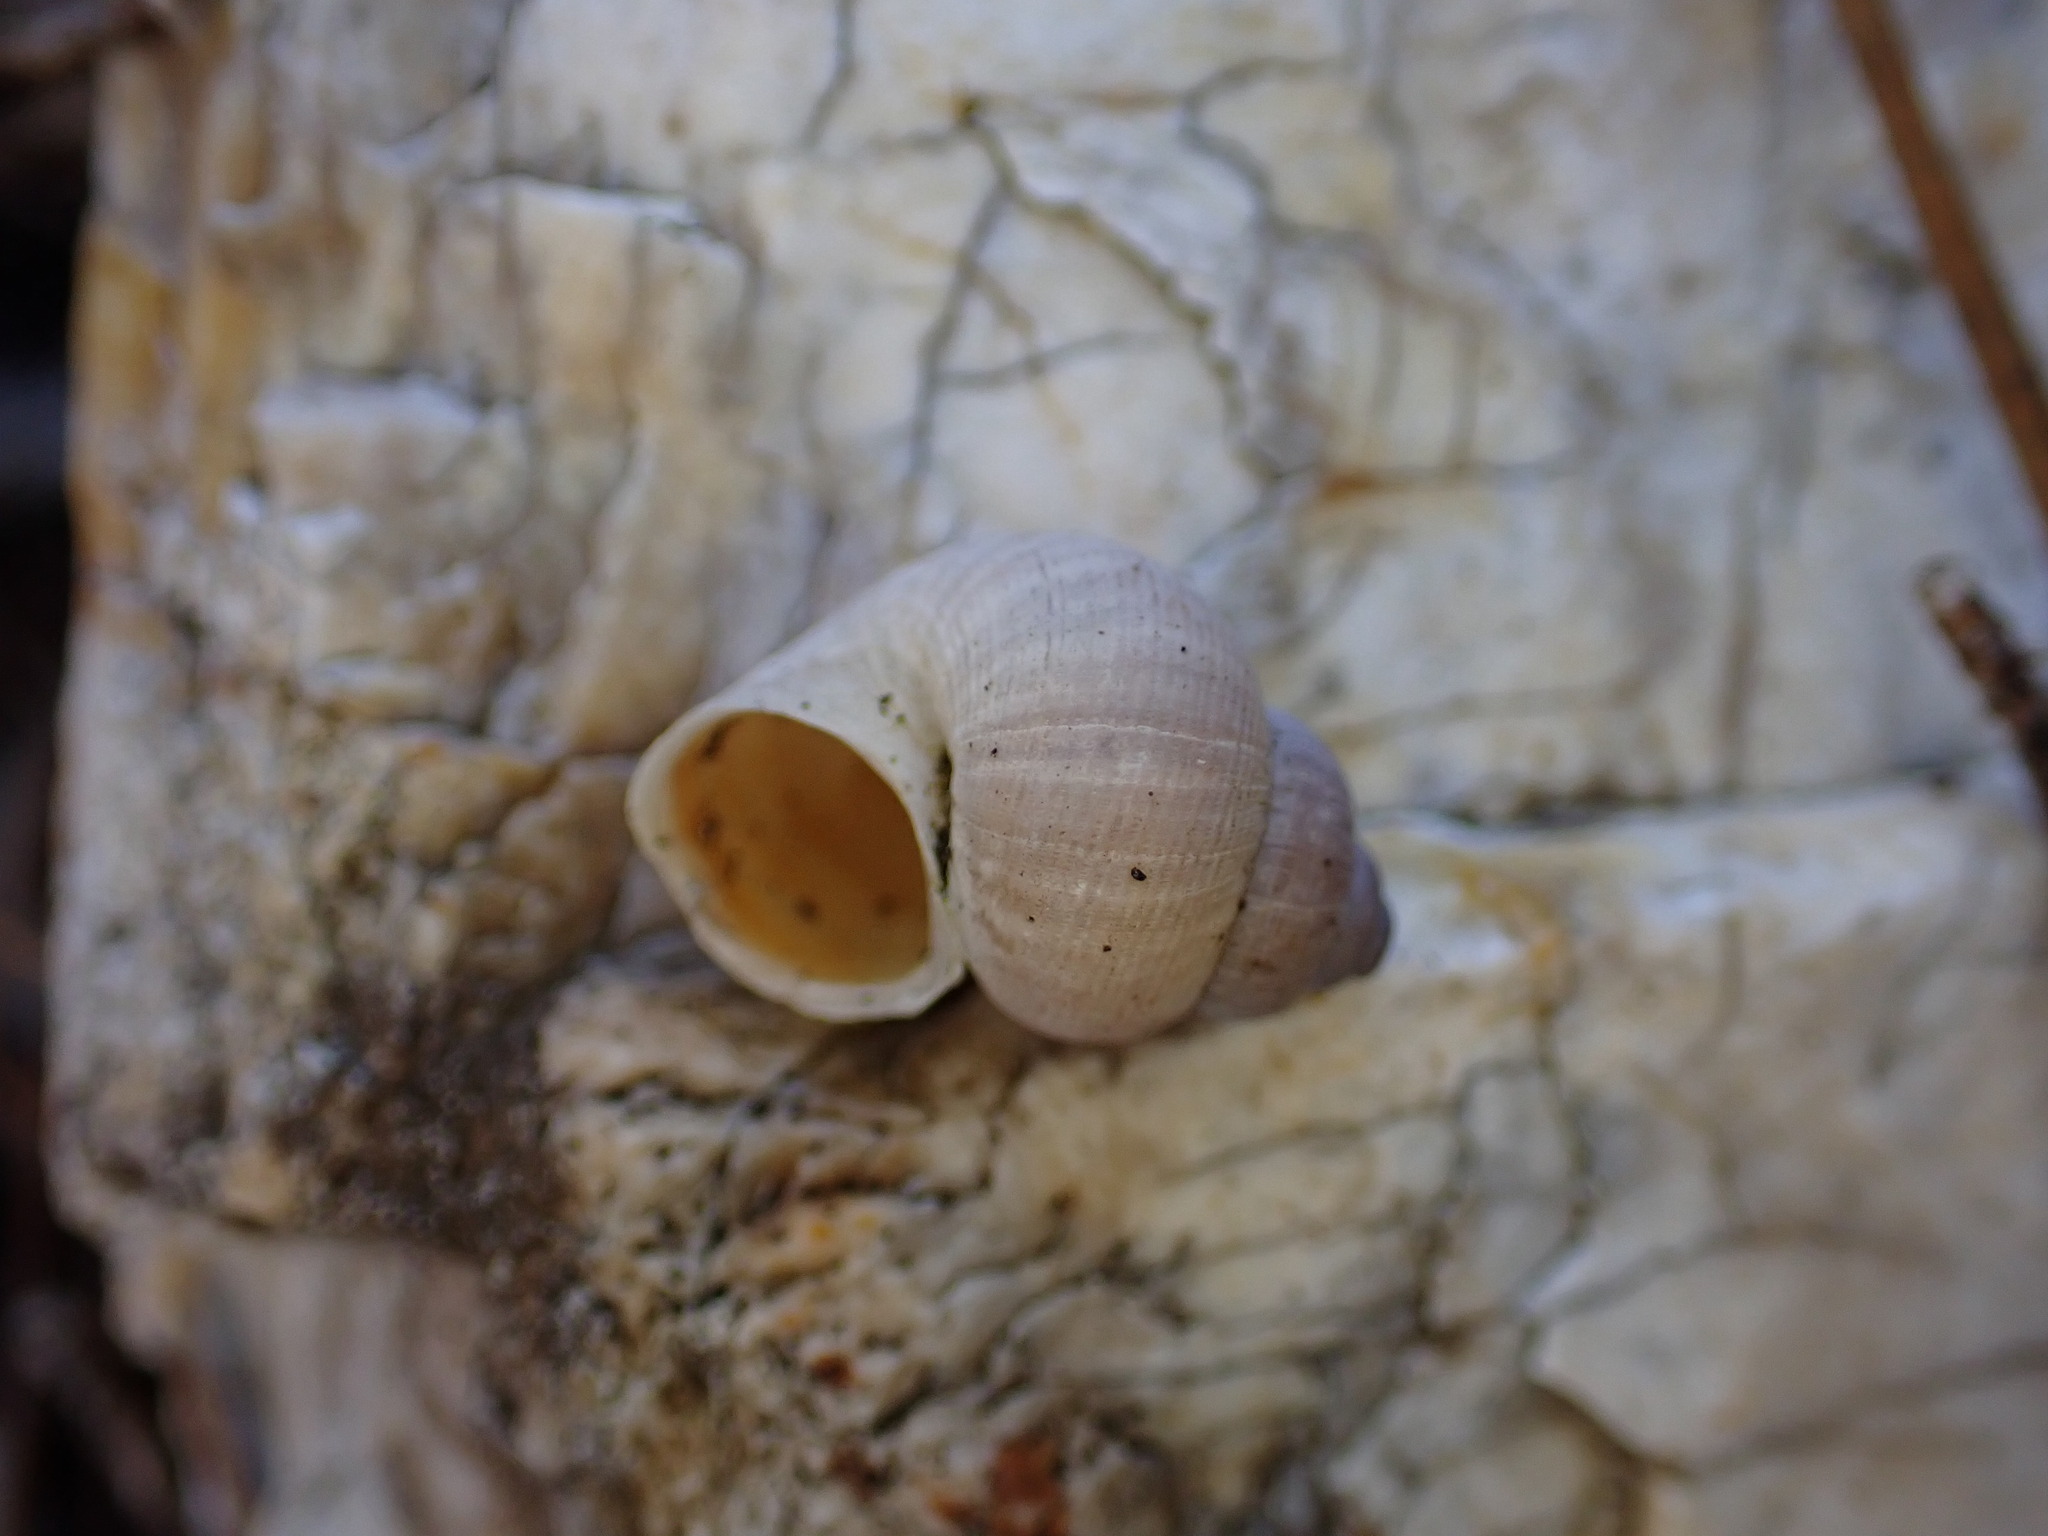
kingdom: Animalia
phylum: Mollusca
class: Gastropoda
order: Littorinimorpha
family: Pomatiidae
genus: Pomatias
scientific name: Pomatias elegans
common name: Red-mouthed snail
